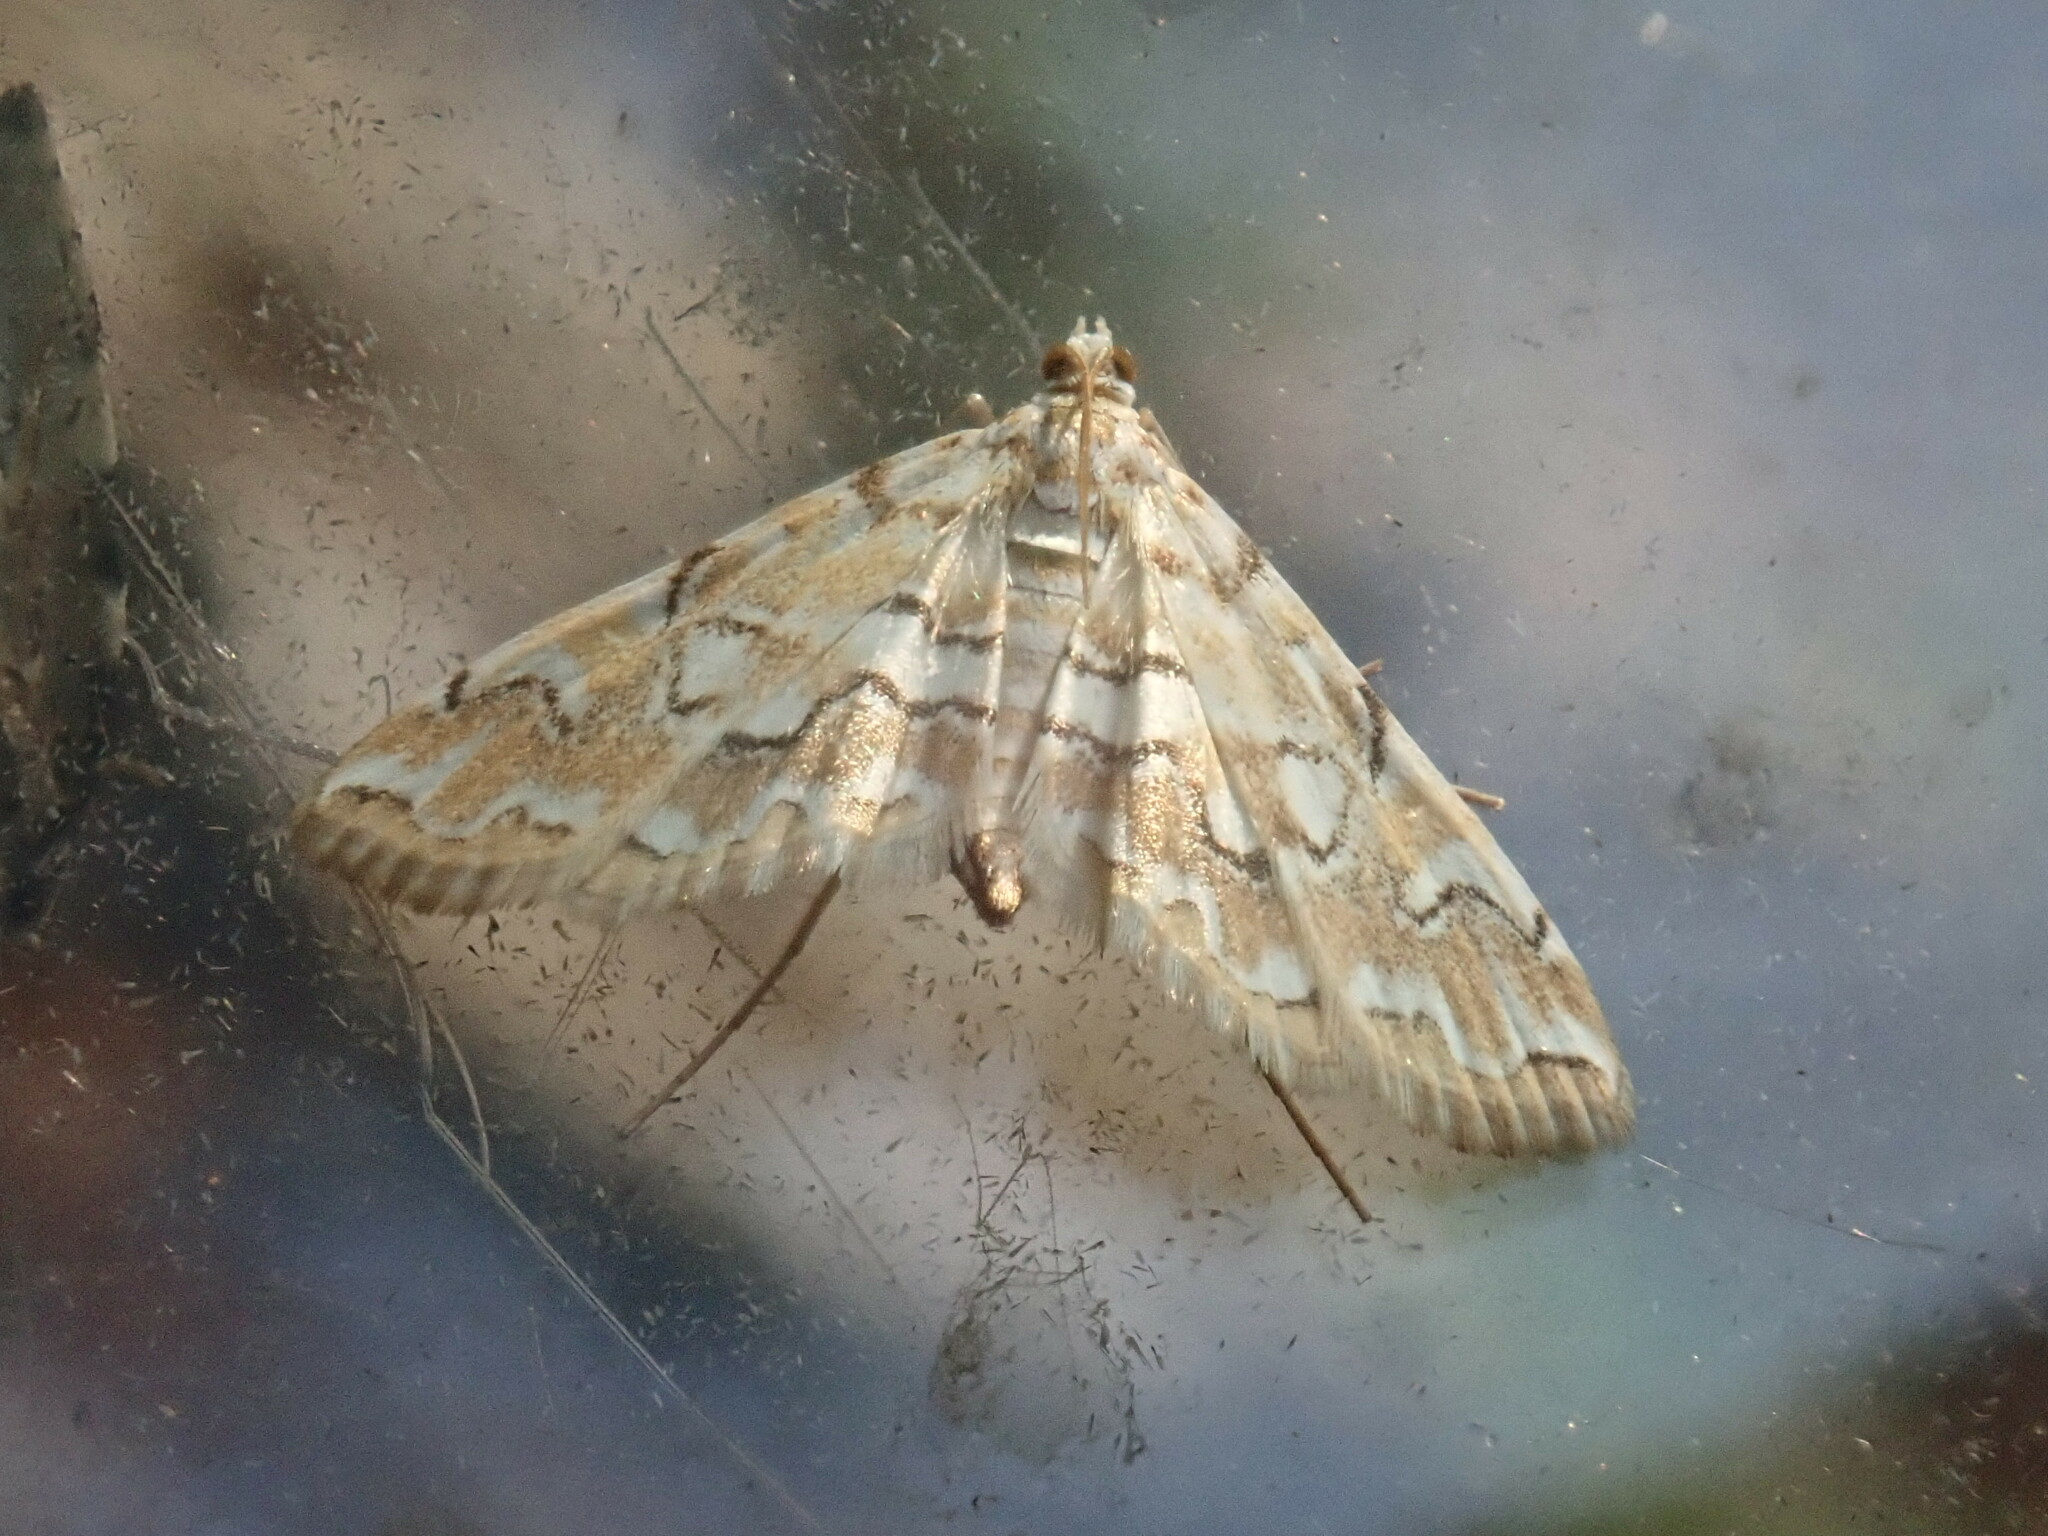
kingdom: Animalia
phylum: Arthropoda
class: Insecta
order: Lepidoptera
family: Crambidae
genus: Elophila
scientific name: Elophila icciusalis
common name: Pondside pyralid moth
